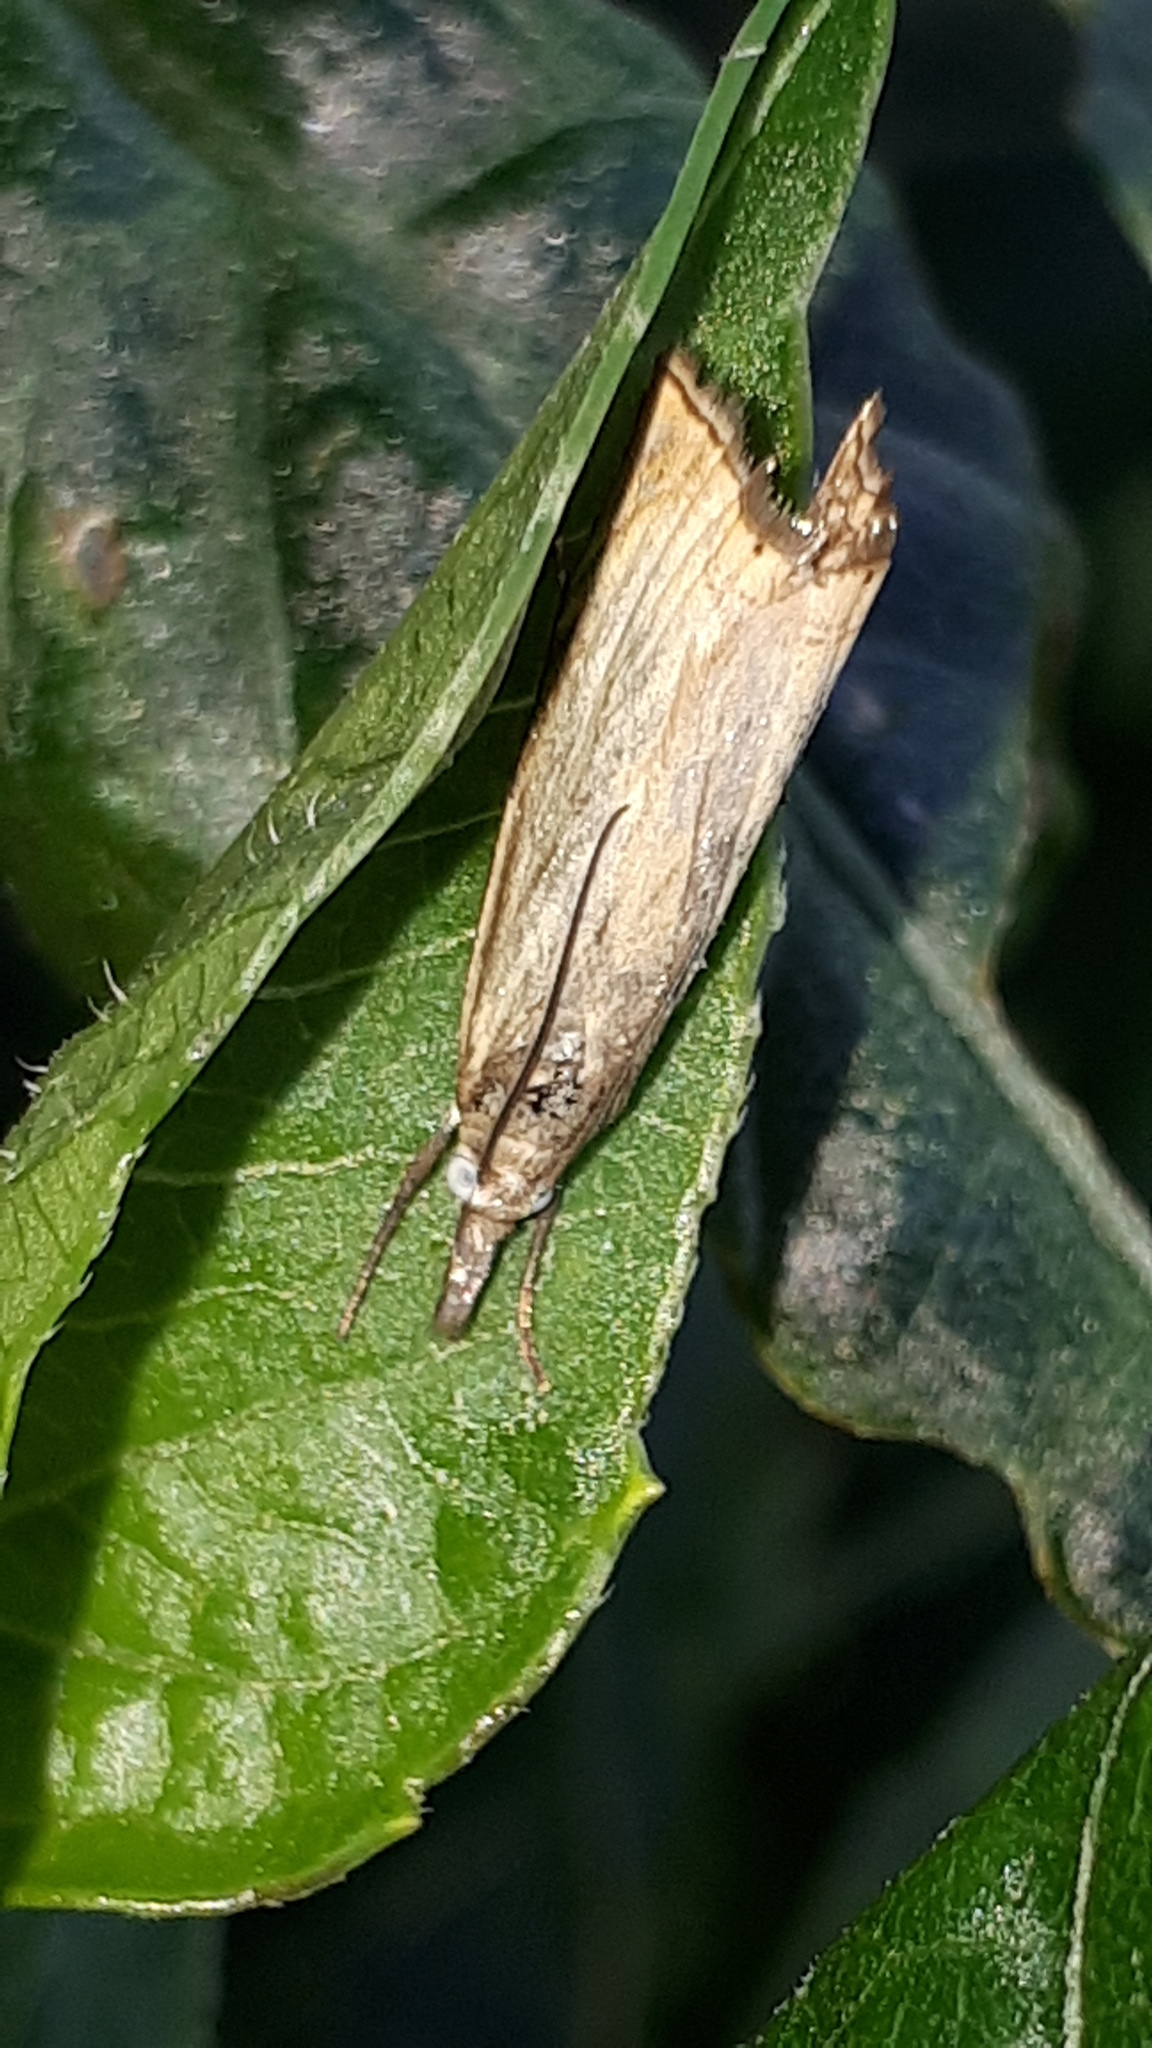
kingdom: Animalia
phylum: Arthropoda
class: Insecta
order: Lepidoptera
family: Crambidae
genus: Chrysoteuchia
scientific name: Chrysoteuchia culmella
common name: Garden grass-veneer
